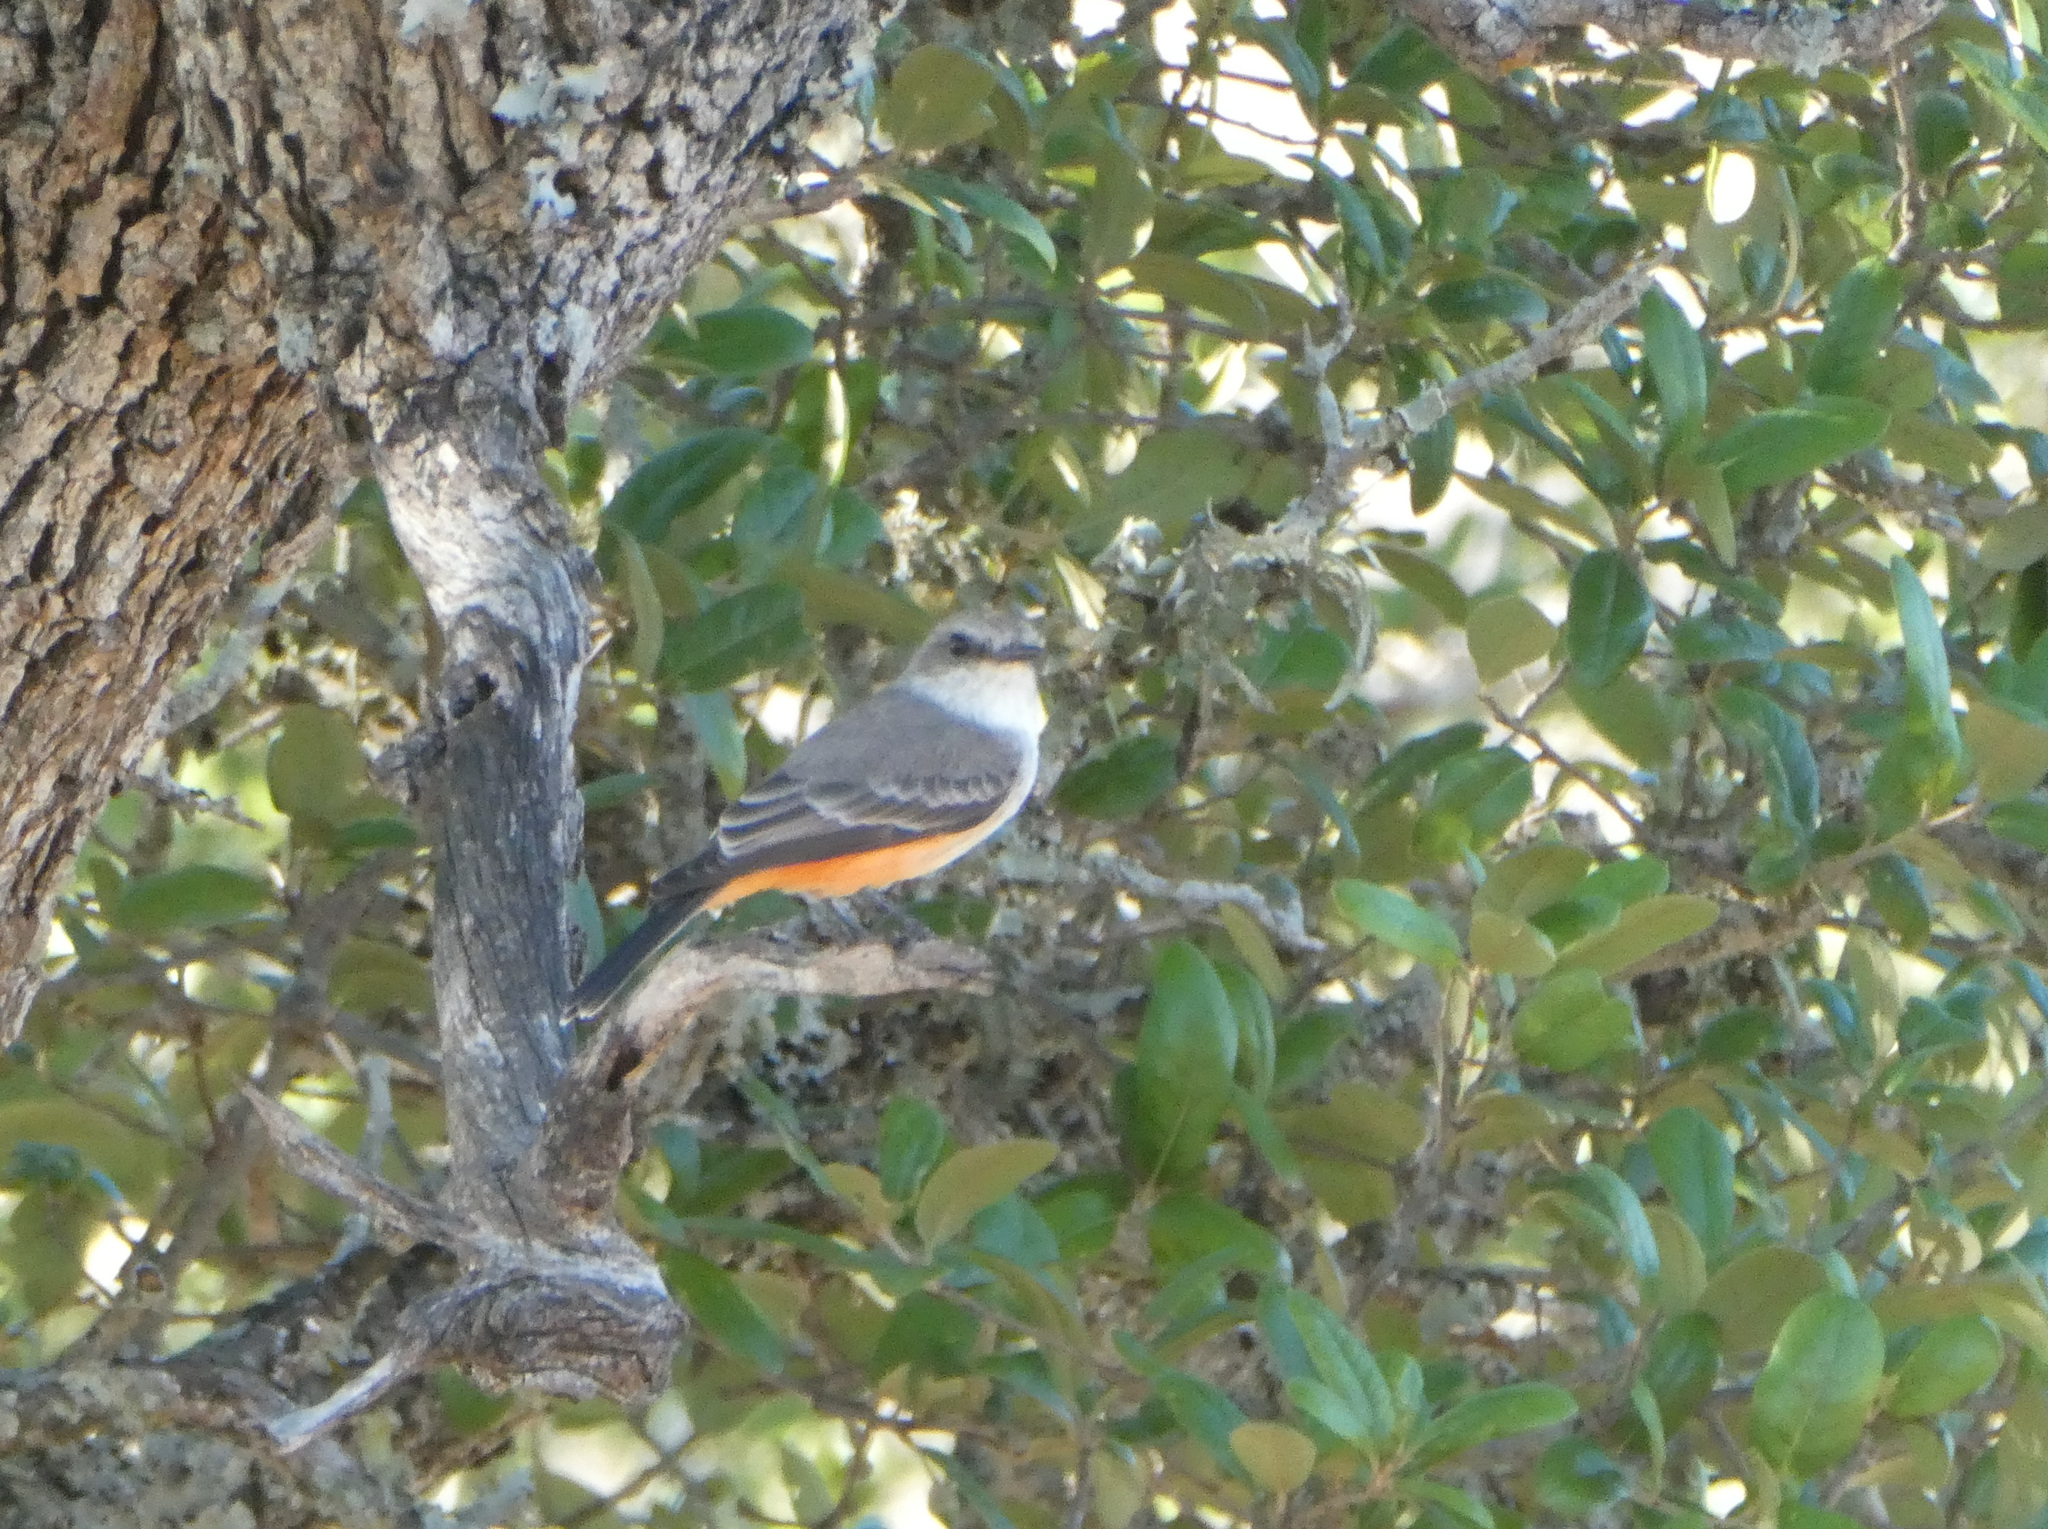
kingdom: Animalia
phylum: Chordata
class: Aves
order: Passeriformes
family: Tyrannidae
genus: Pyrocephalus
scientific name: Pyrocephalus rubinus
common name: Vermilion flycatcher
